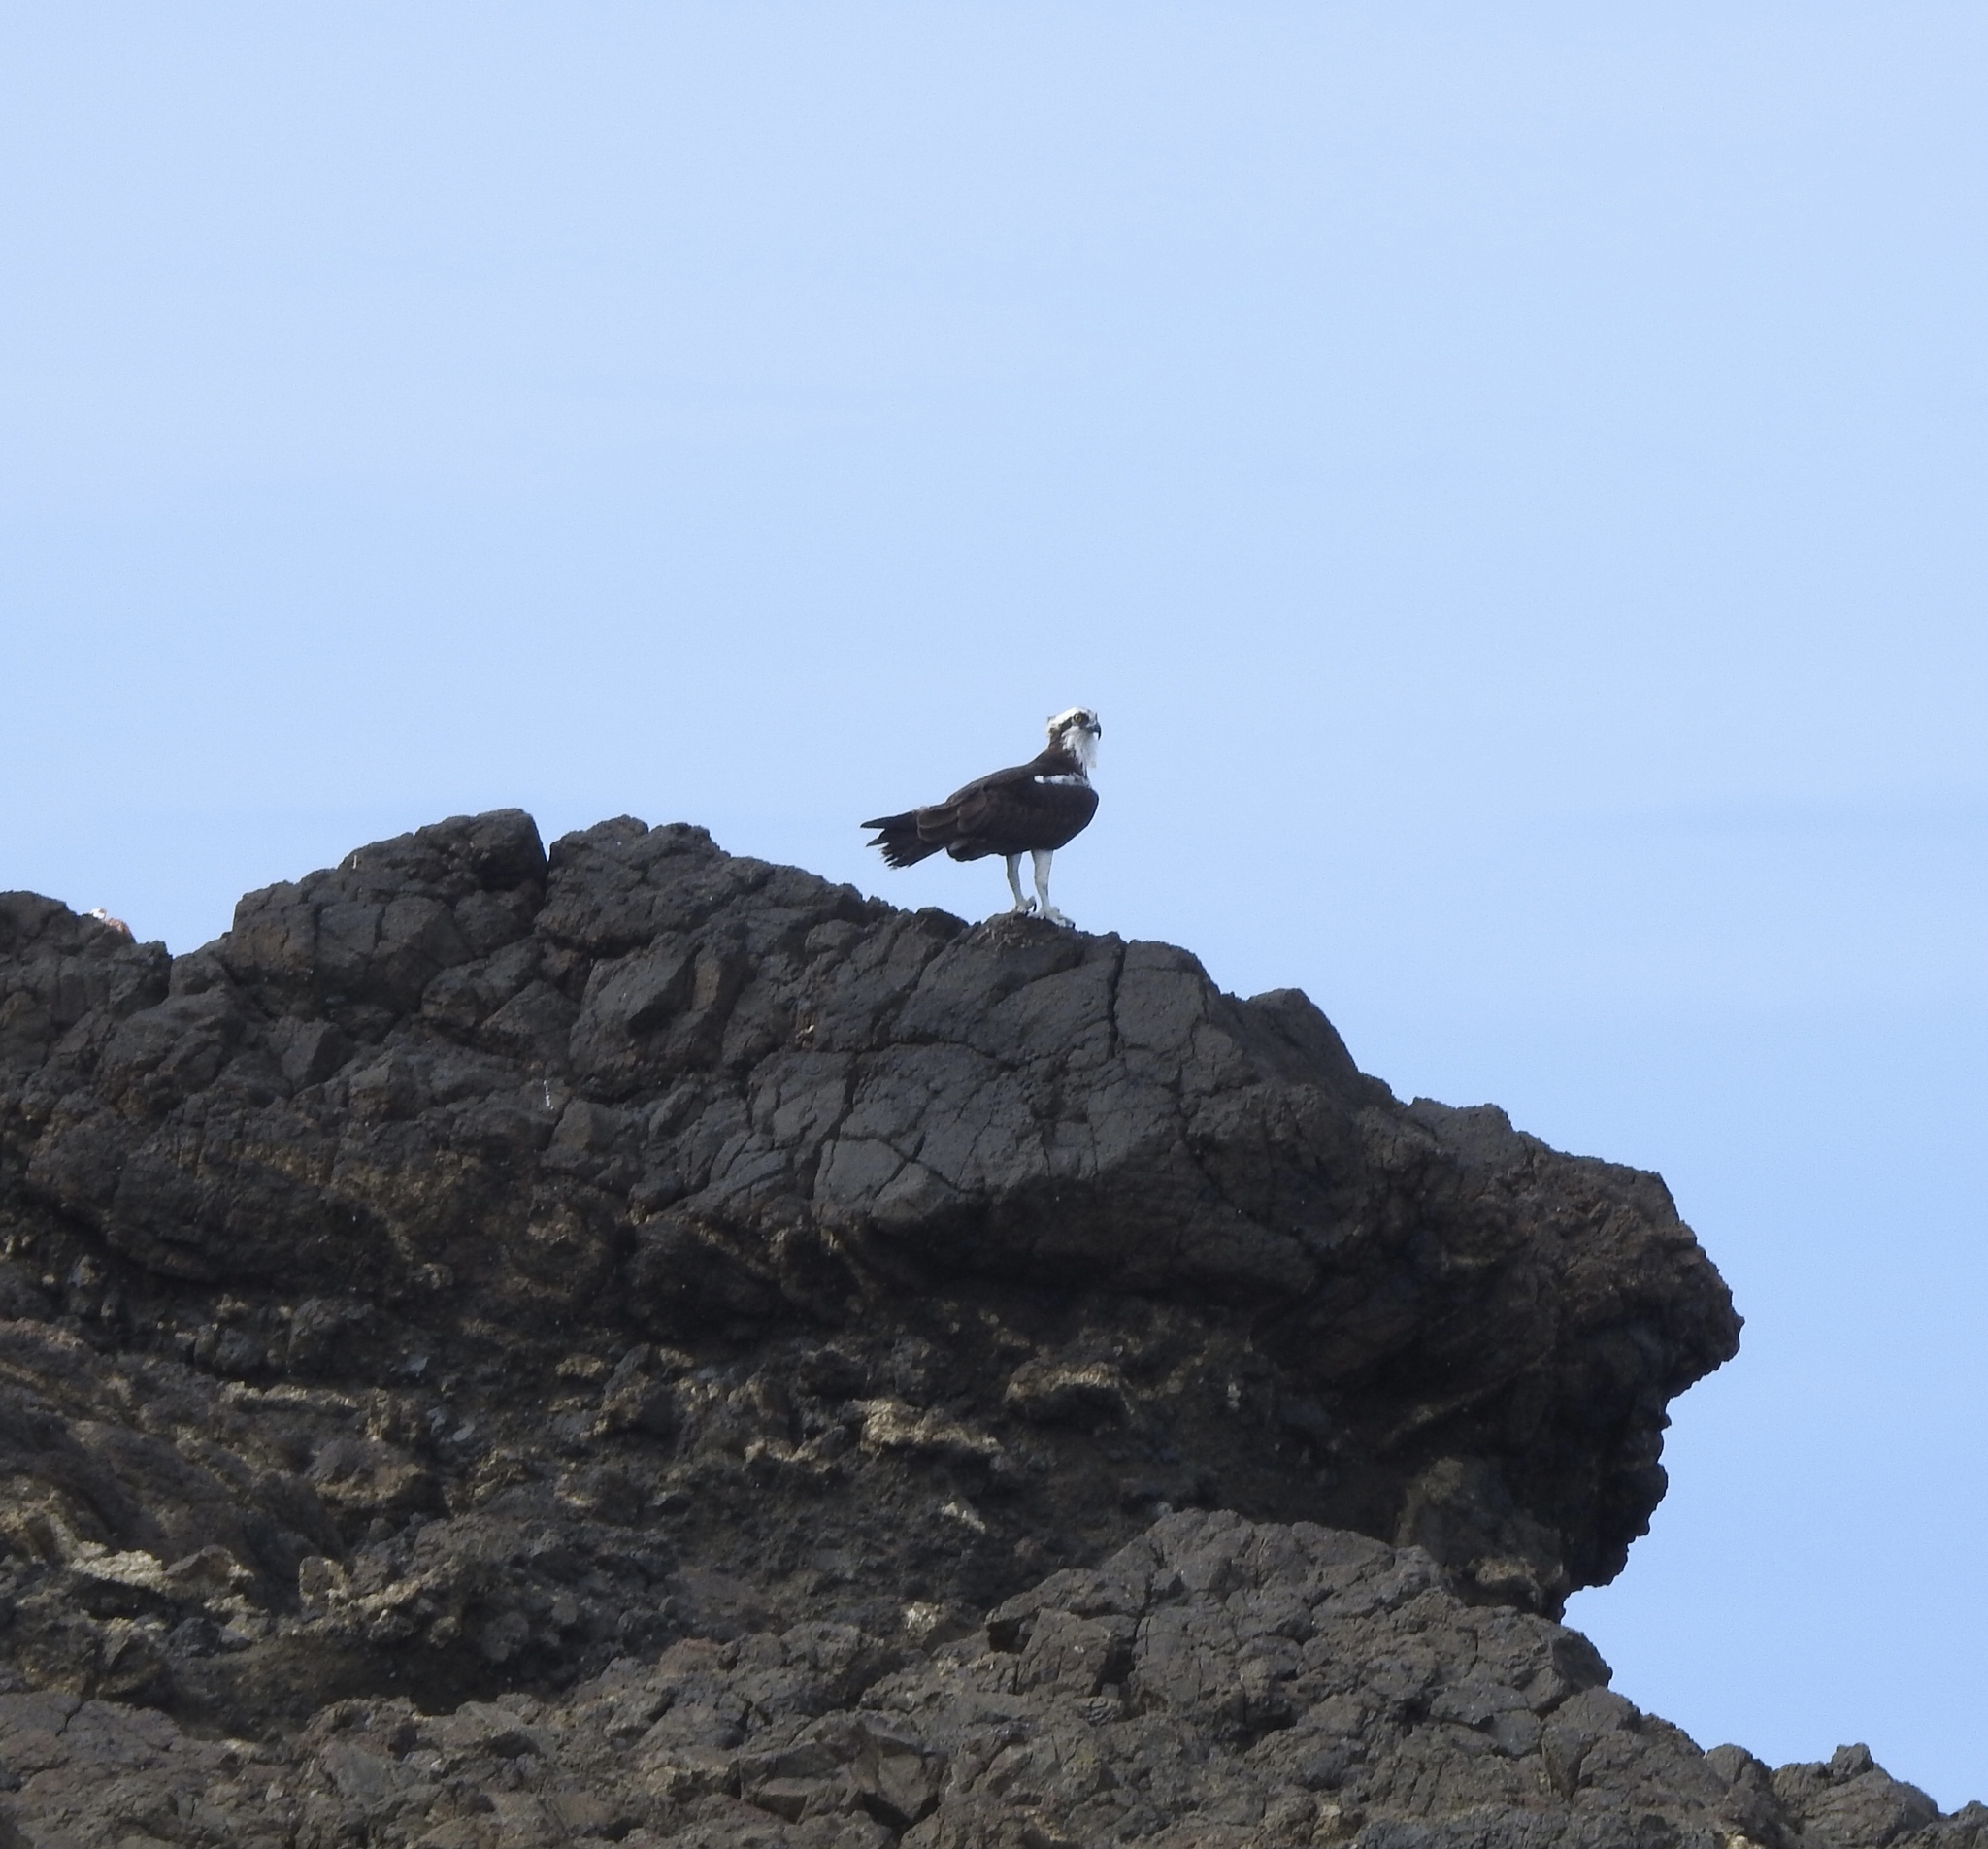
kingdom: Animalia
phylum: Chordata
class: Aves
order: Accipitriformes
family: Pandionidae
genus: Pandion
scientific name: Pandion haliaetus
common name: Osprey
